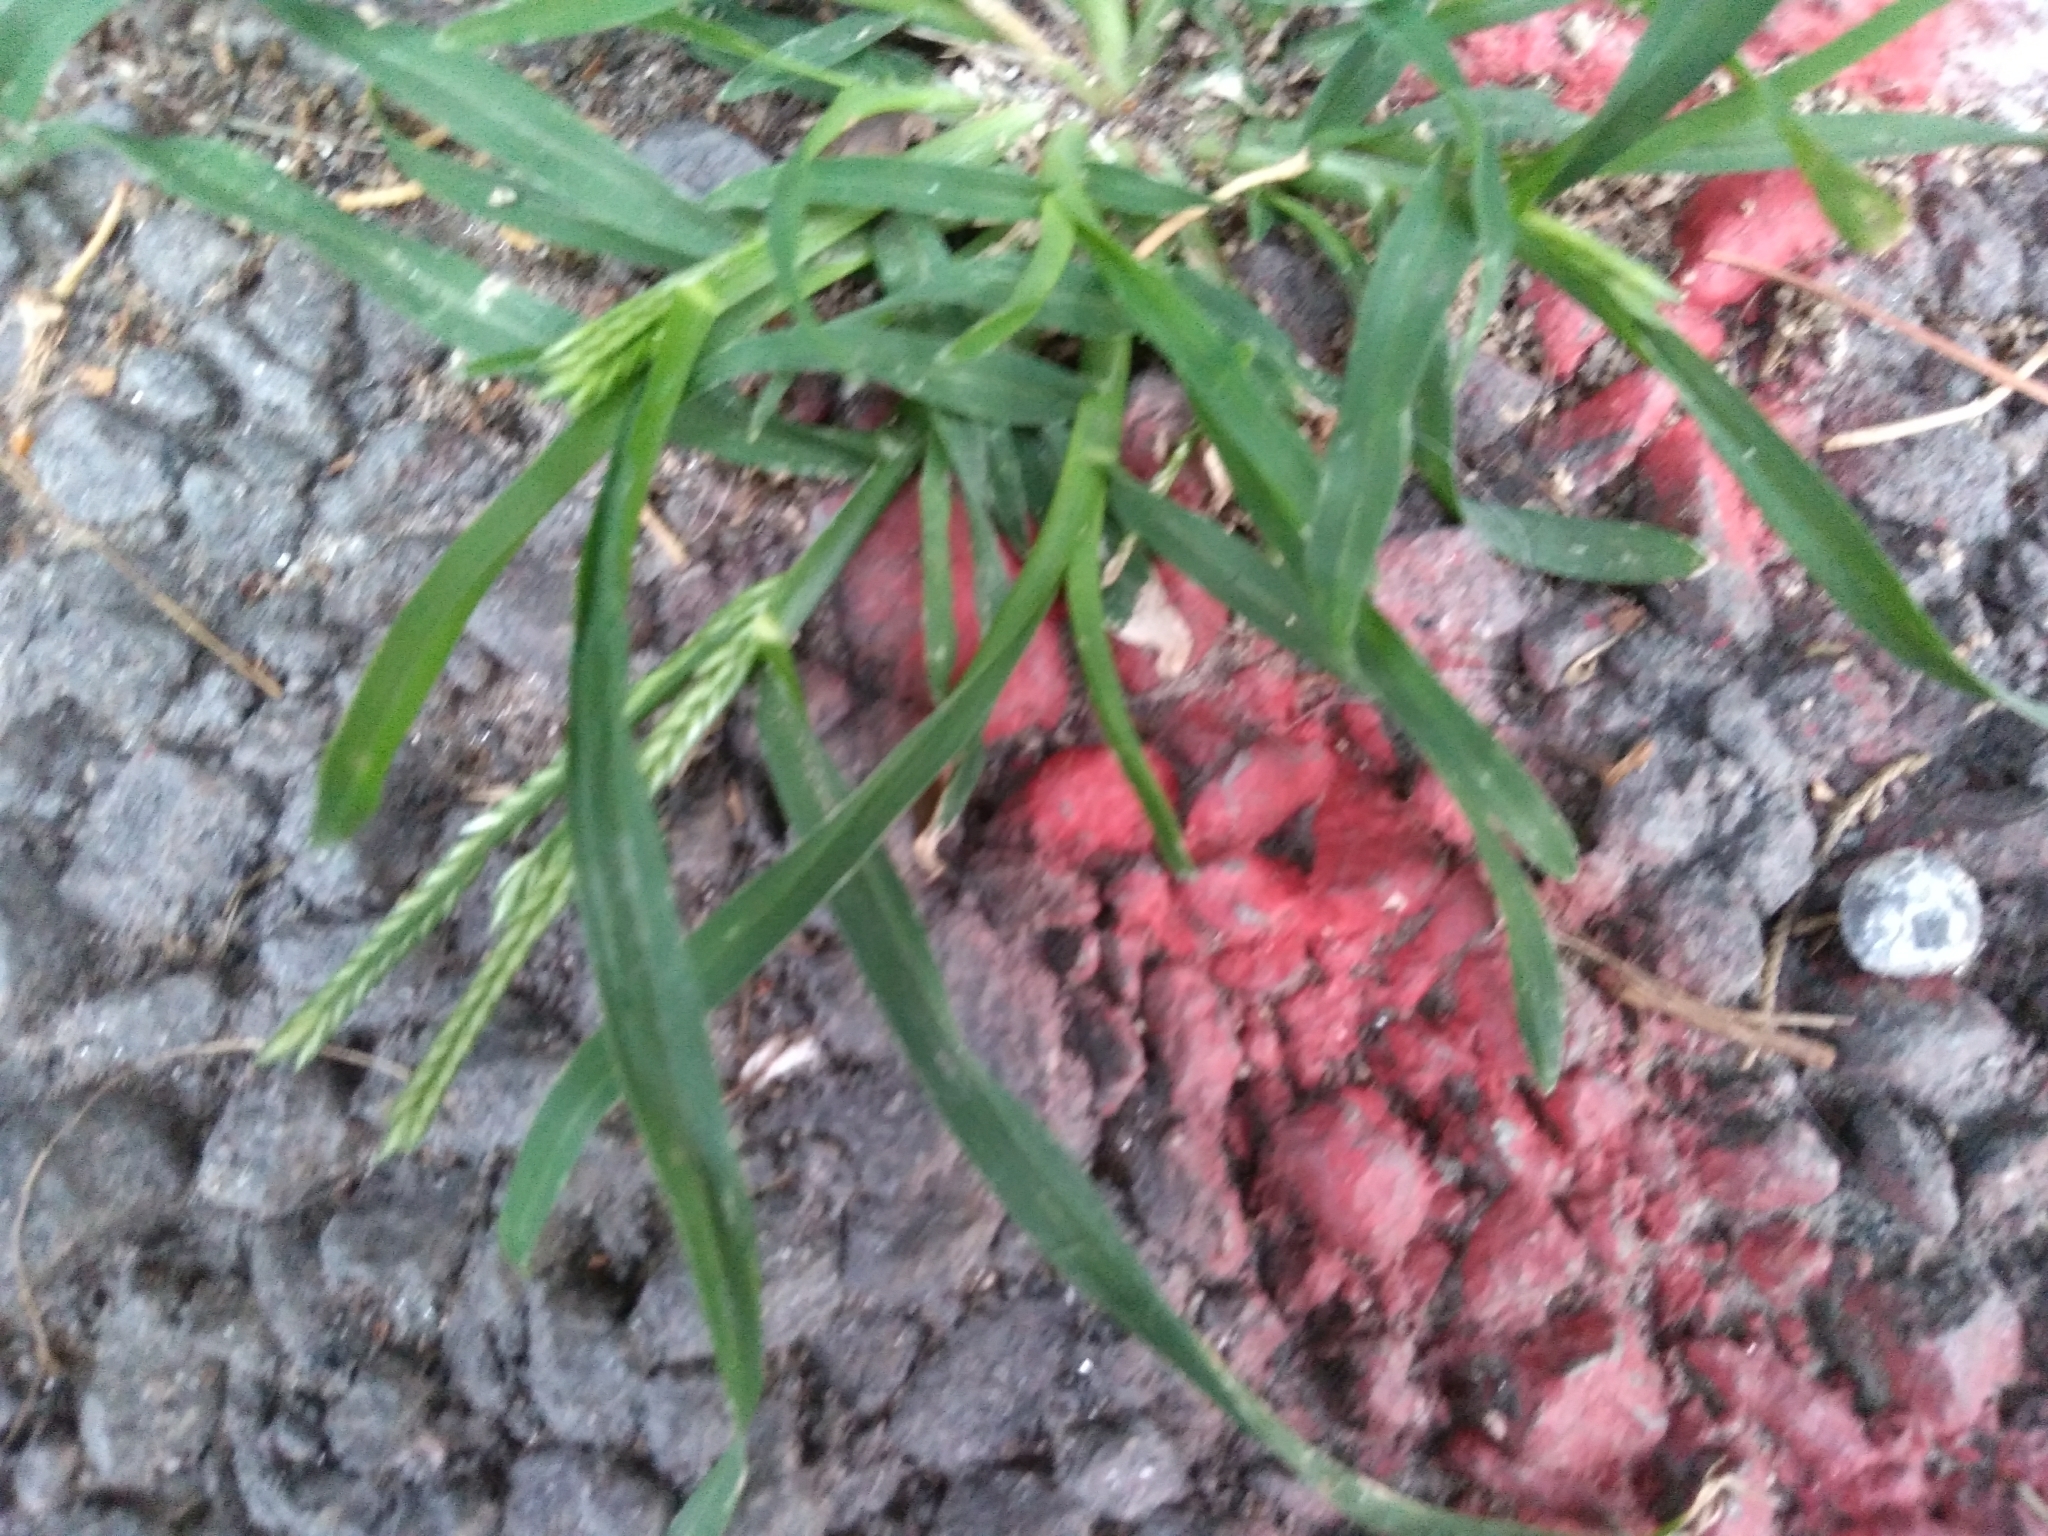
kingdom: Plantae
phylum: Tracheophyta
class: Liliopsida
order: Poales
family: Poaceae
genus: Eleusine
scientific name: Eleusine indica
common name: Yard-grass
